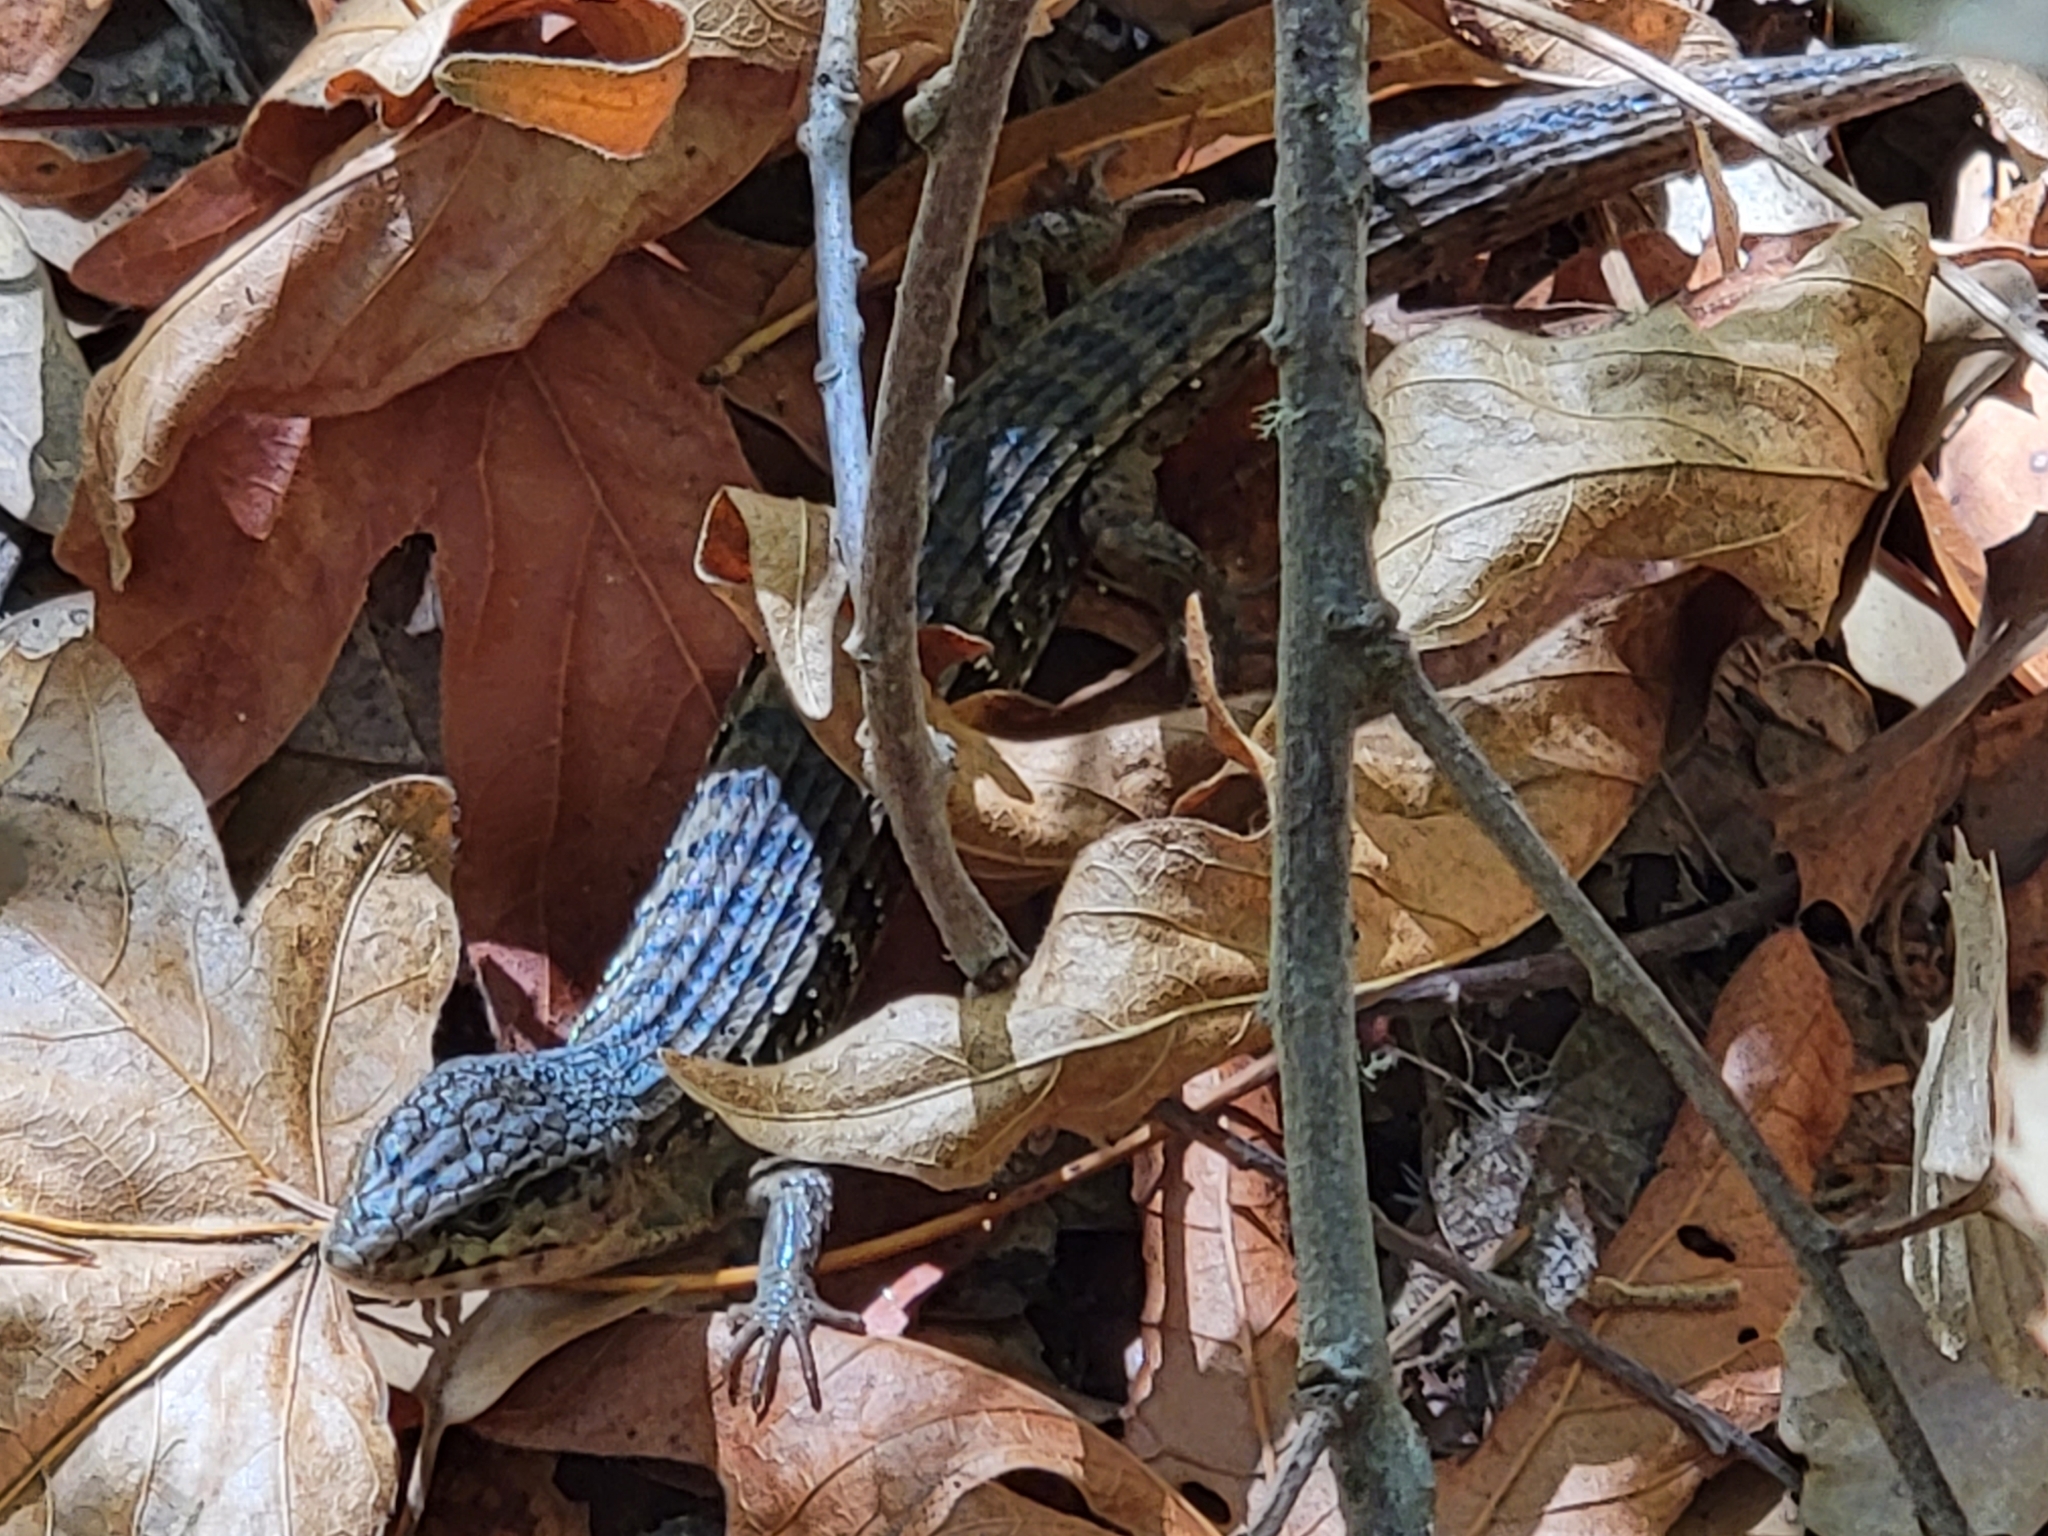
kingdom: Animalia
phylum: Chordata
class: Squamata
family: Anguidae
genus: Elgaria
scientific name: Elgaria coerulea
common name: Northern alligator lizard
